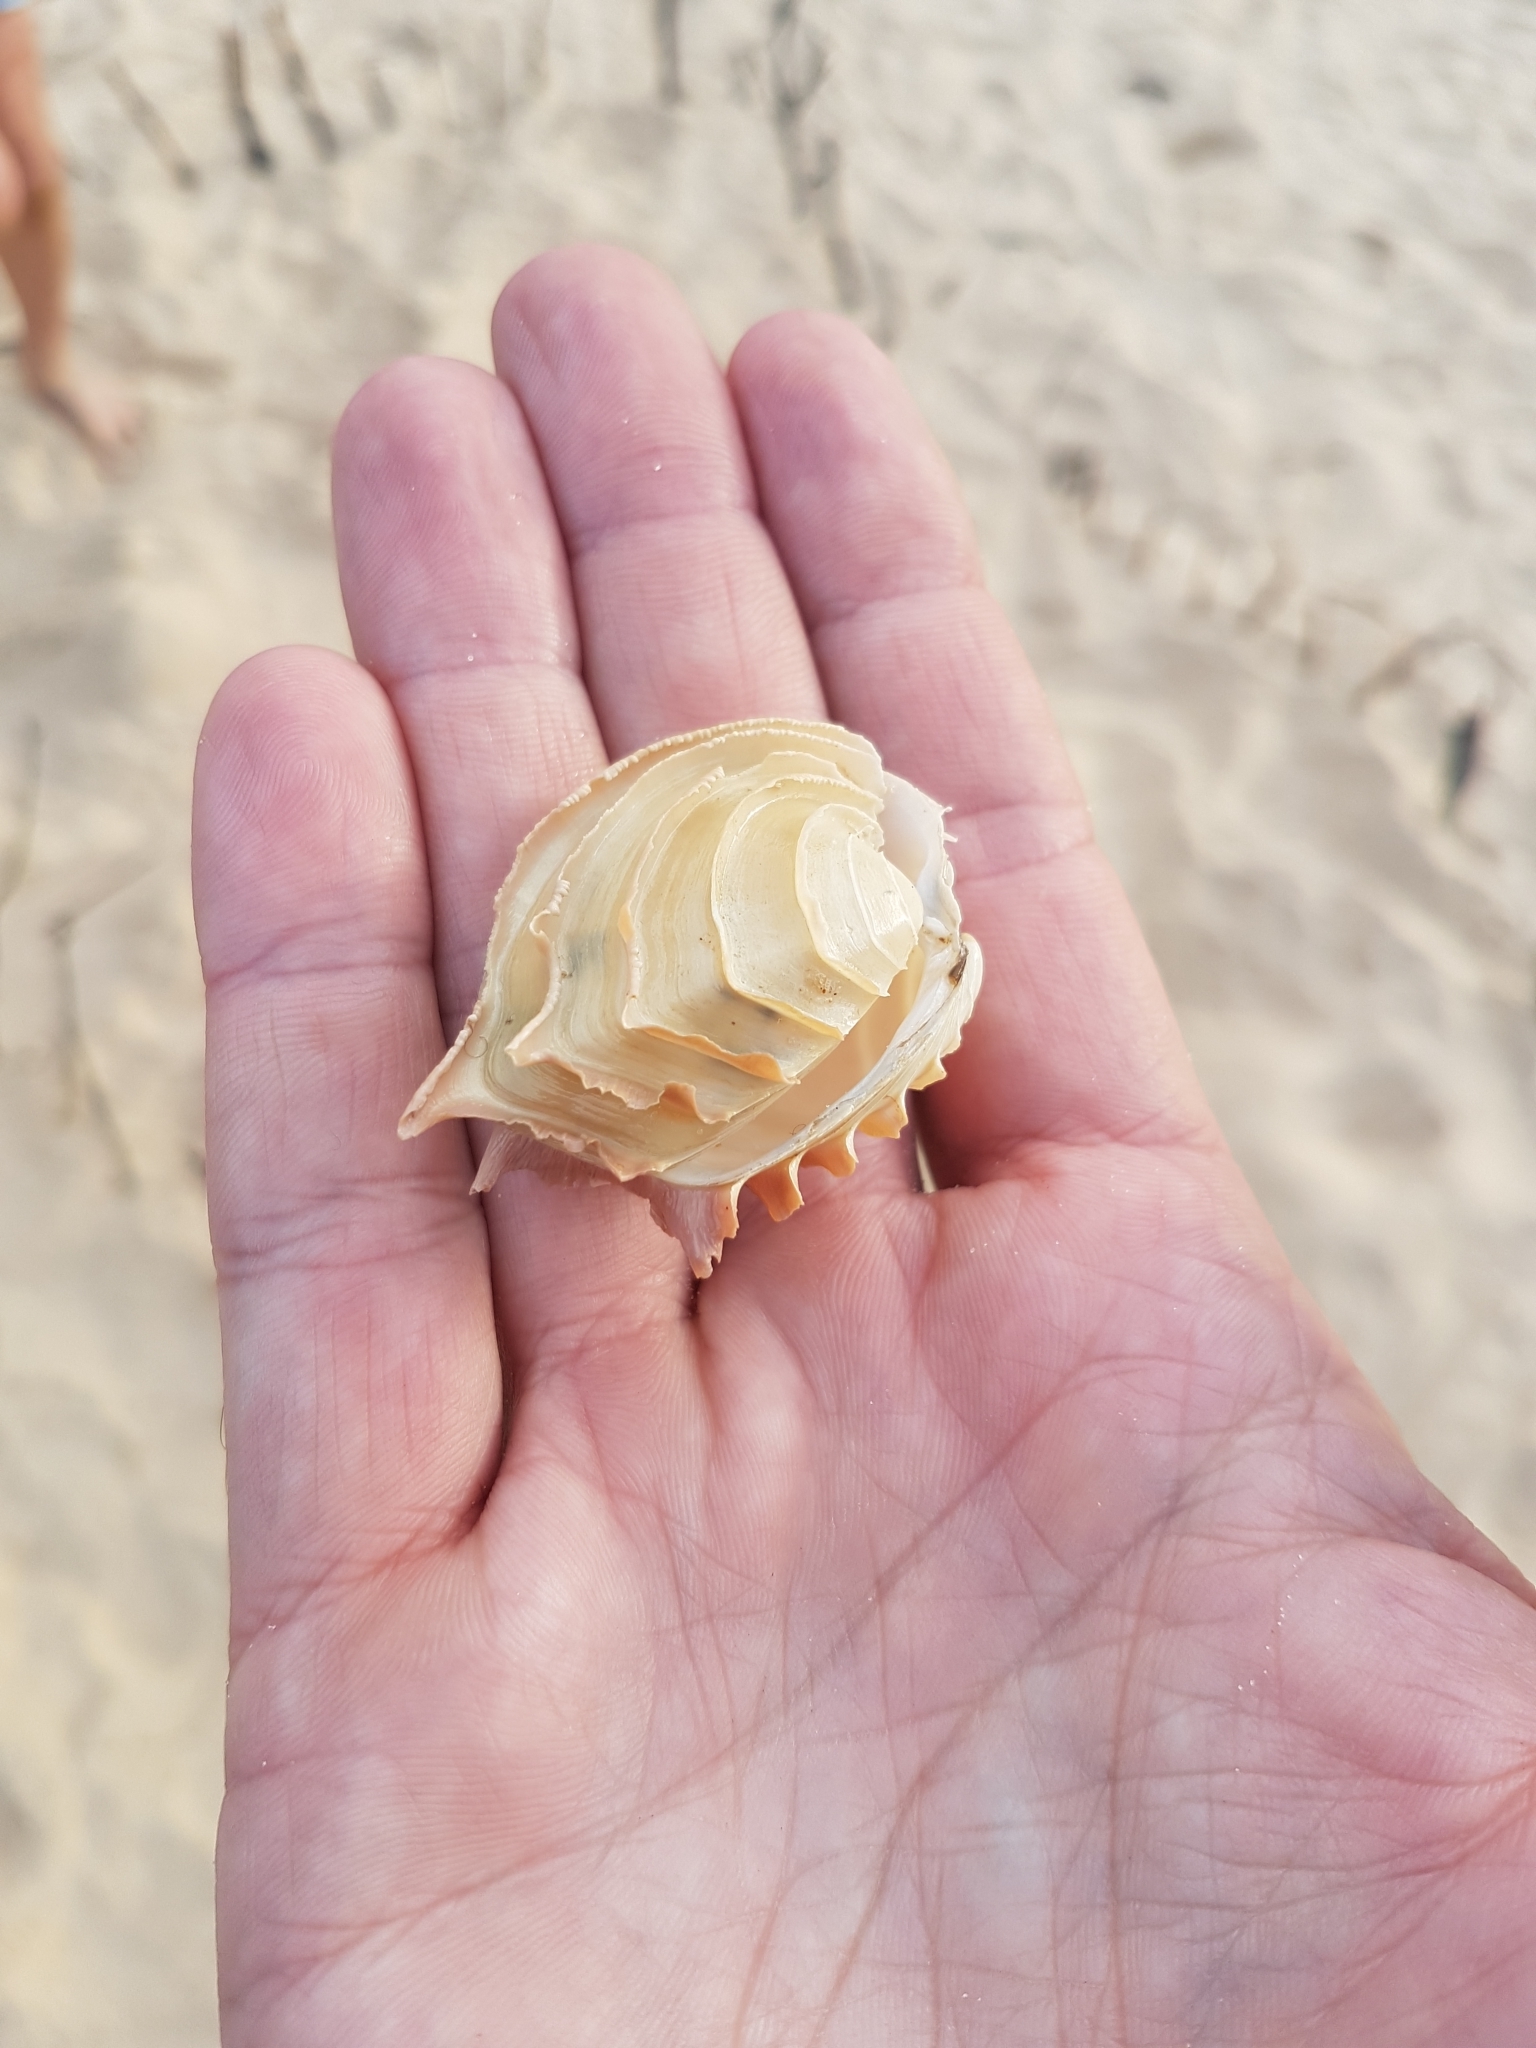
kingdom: Animalia
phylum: Mollusca
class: Bivalvia
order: Venerida
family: Veneridae
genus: Bassina
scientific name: Bassina disjecta
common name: Wedding-cake venus
